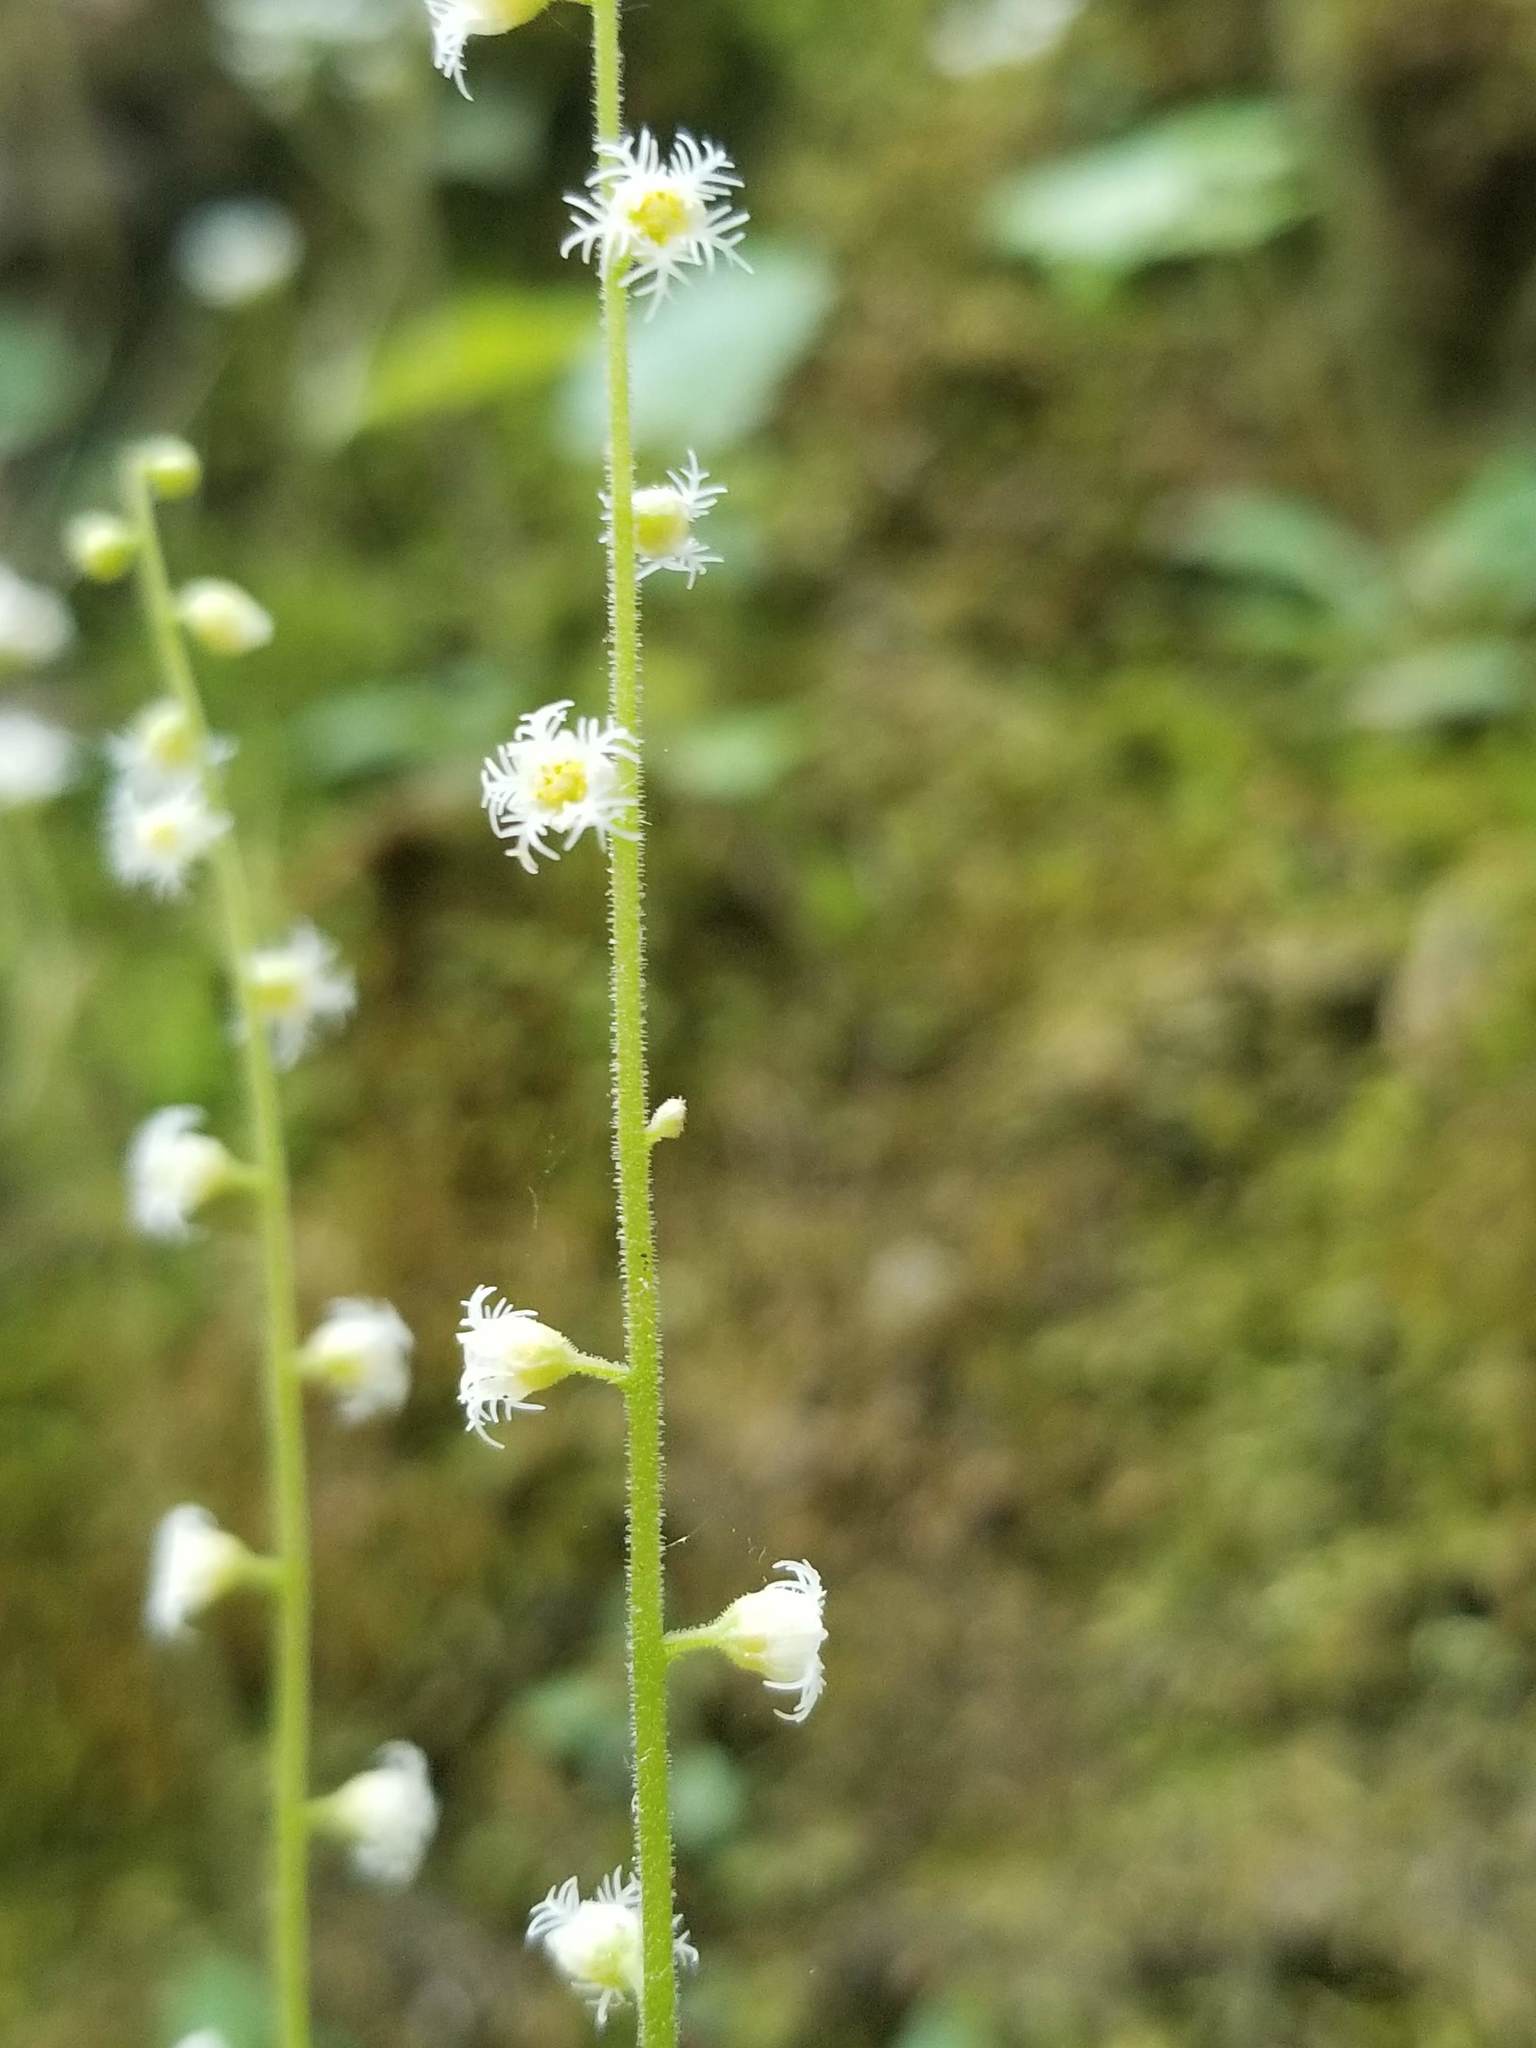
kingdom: Plantae
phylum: Tracheophyta
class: Magnoliopsida
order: Saxifragales
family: Saxifragaceae
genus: Mitella
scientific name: Mitella diphylla
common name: Coolwort
